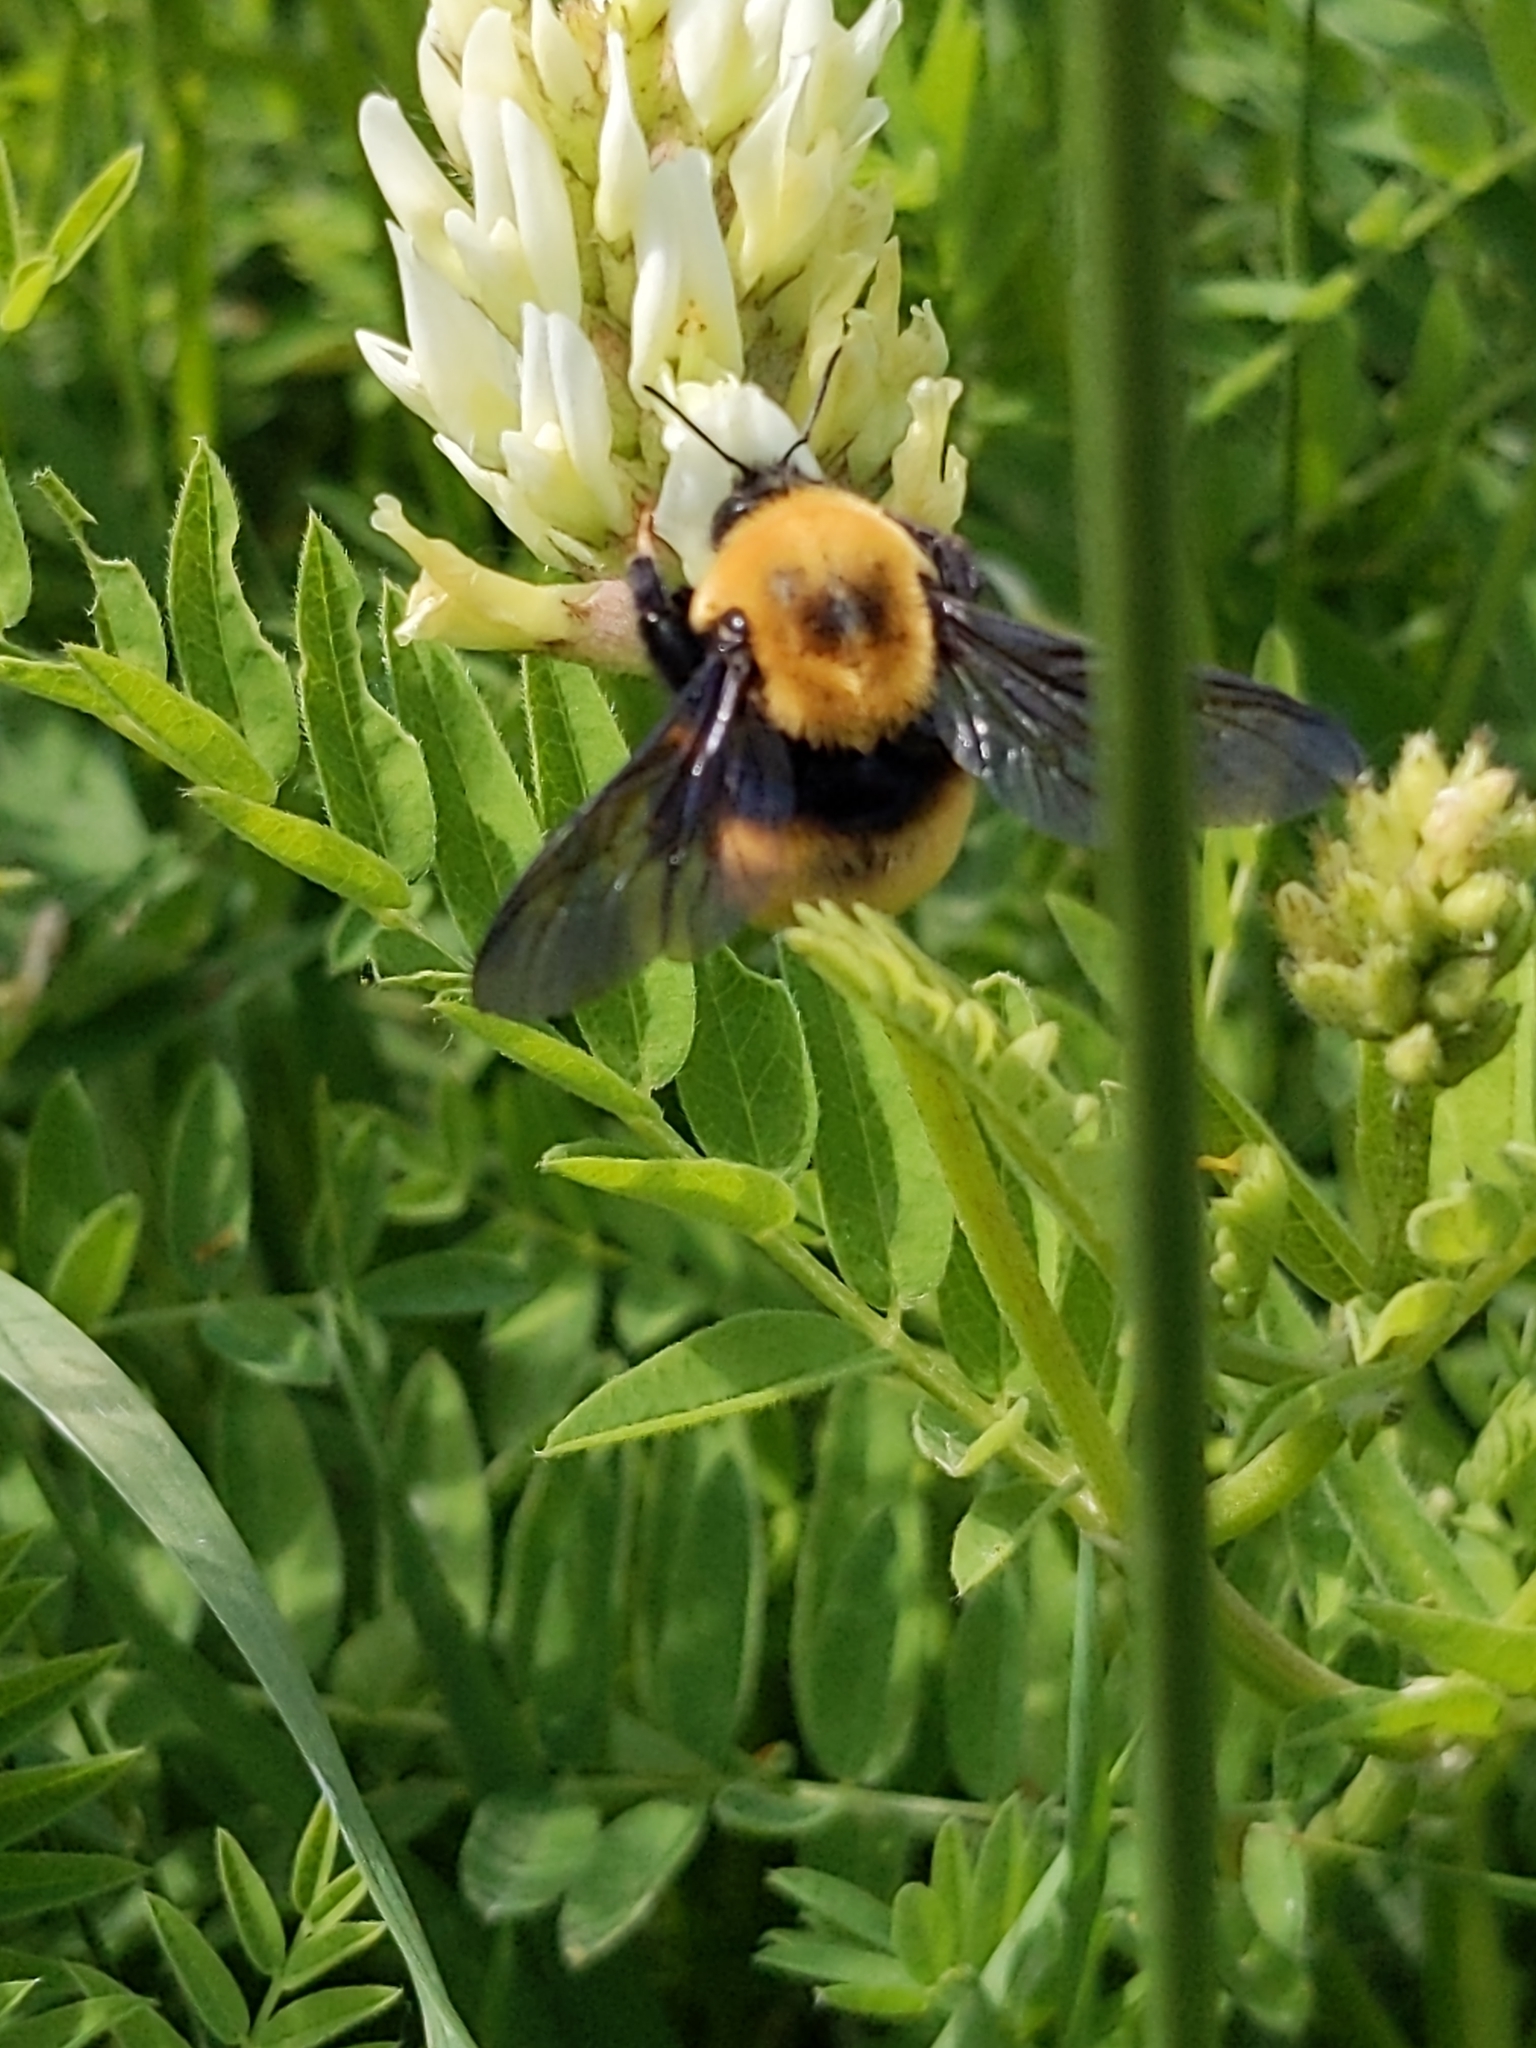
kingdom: Animalia
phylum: Arthropoda
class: Insecta
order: Hymenoptera
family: Apidae
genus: Bombus
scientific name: Bombus nevadensis
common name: Nevada bumble bee
